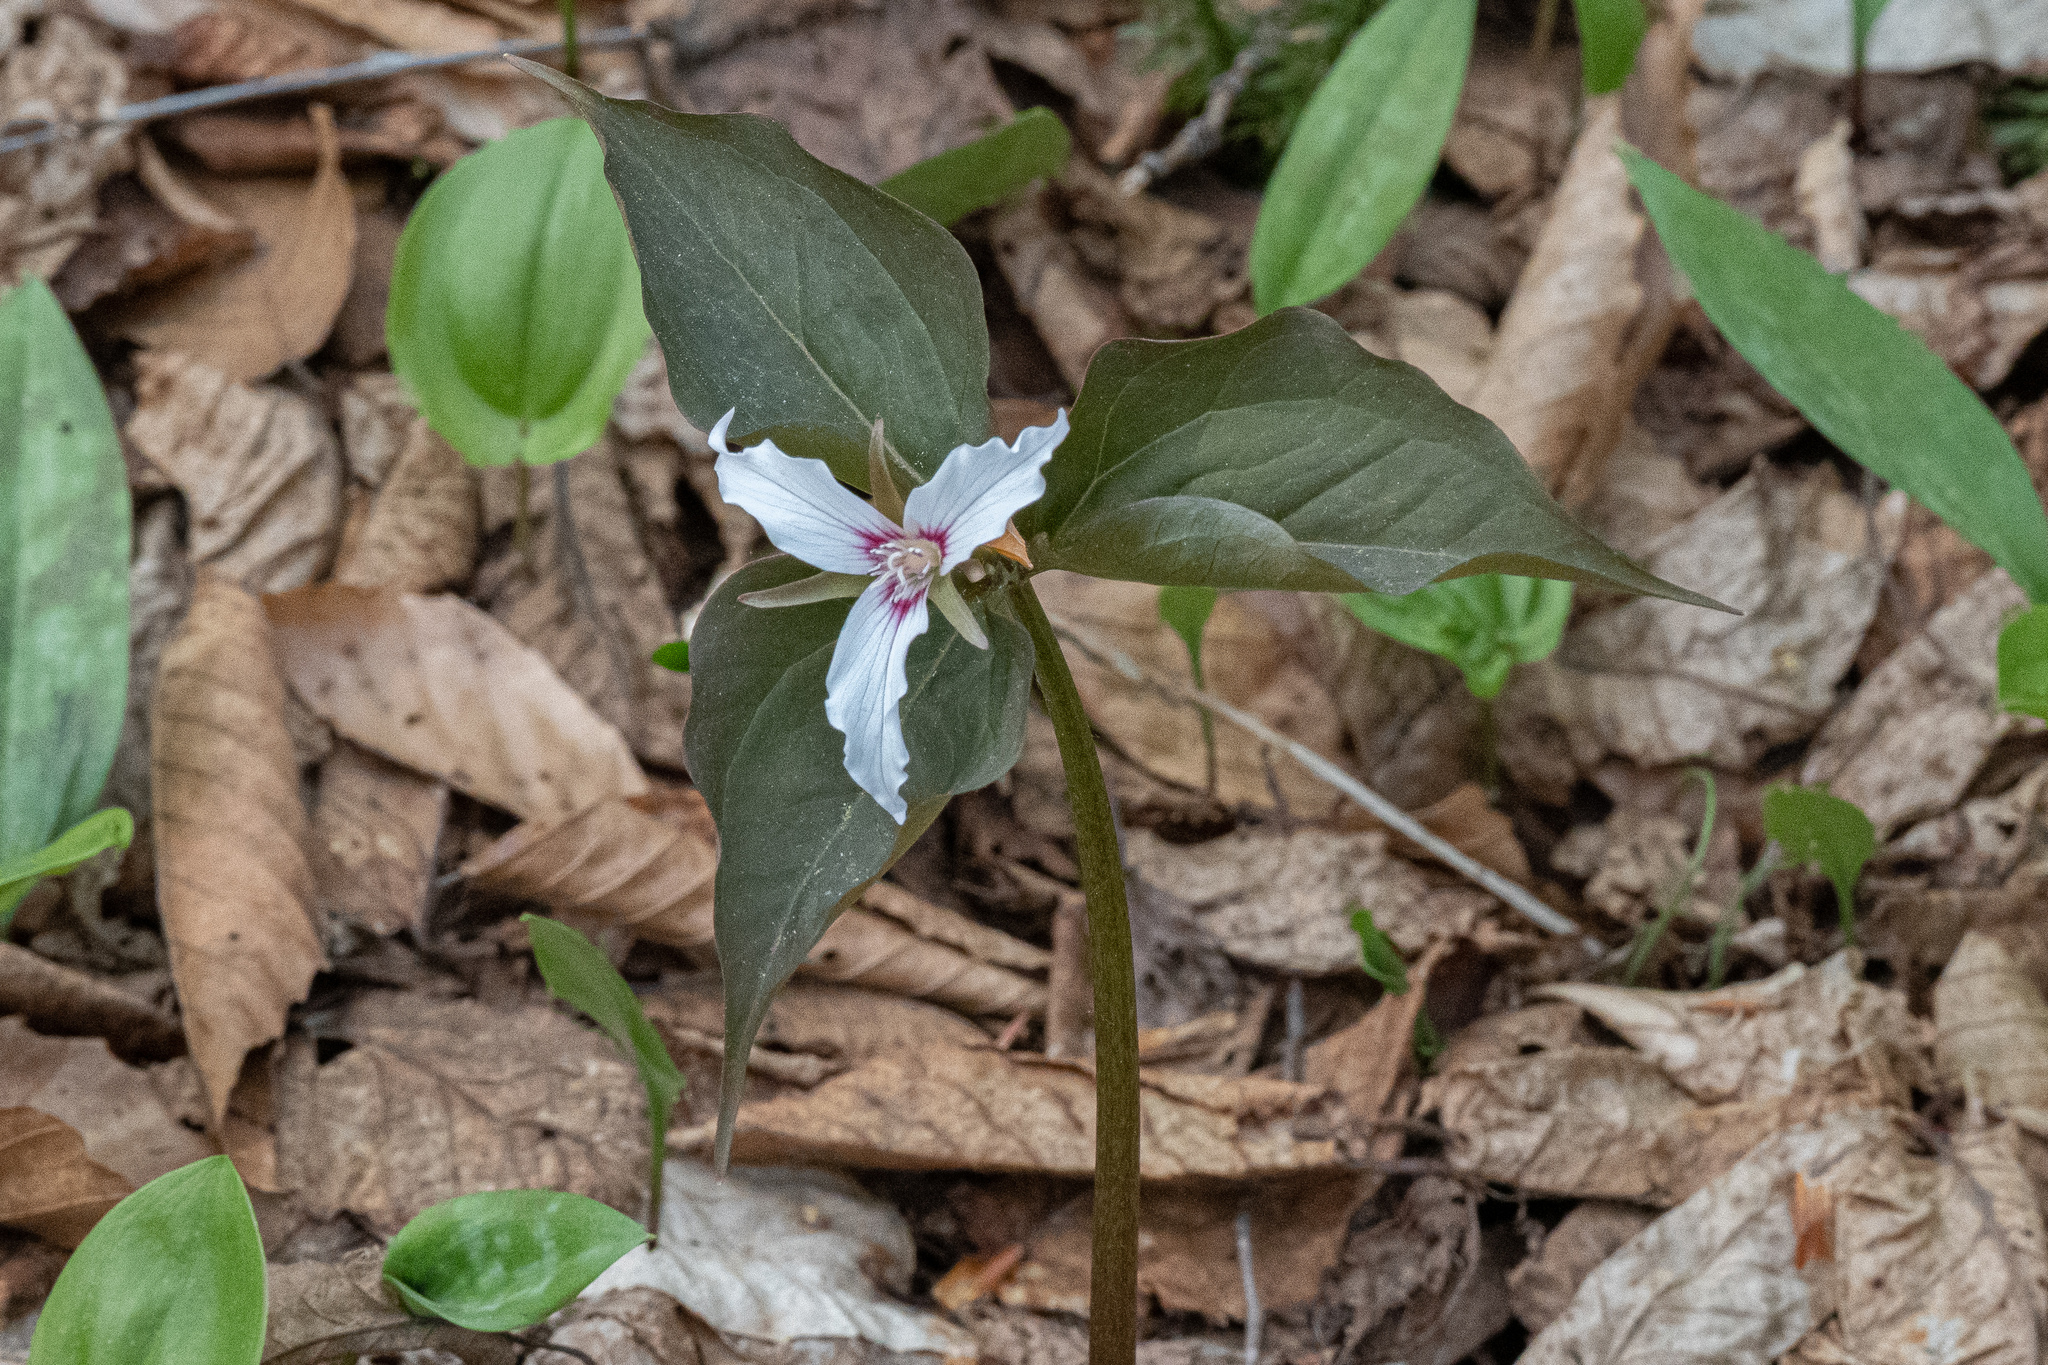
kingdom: Plantae
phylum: Tracheophyta
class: Liliopsida
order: Liliales
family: Melanthiaceae
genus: Trillium
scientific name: Trillium undulatum
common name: Paint trillium
